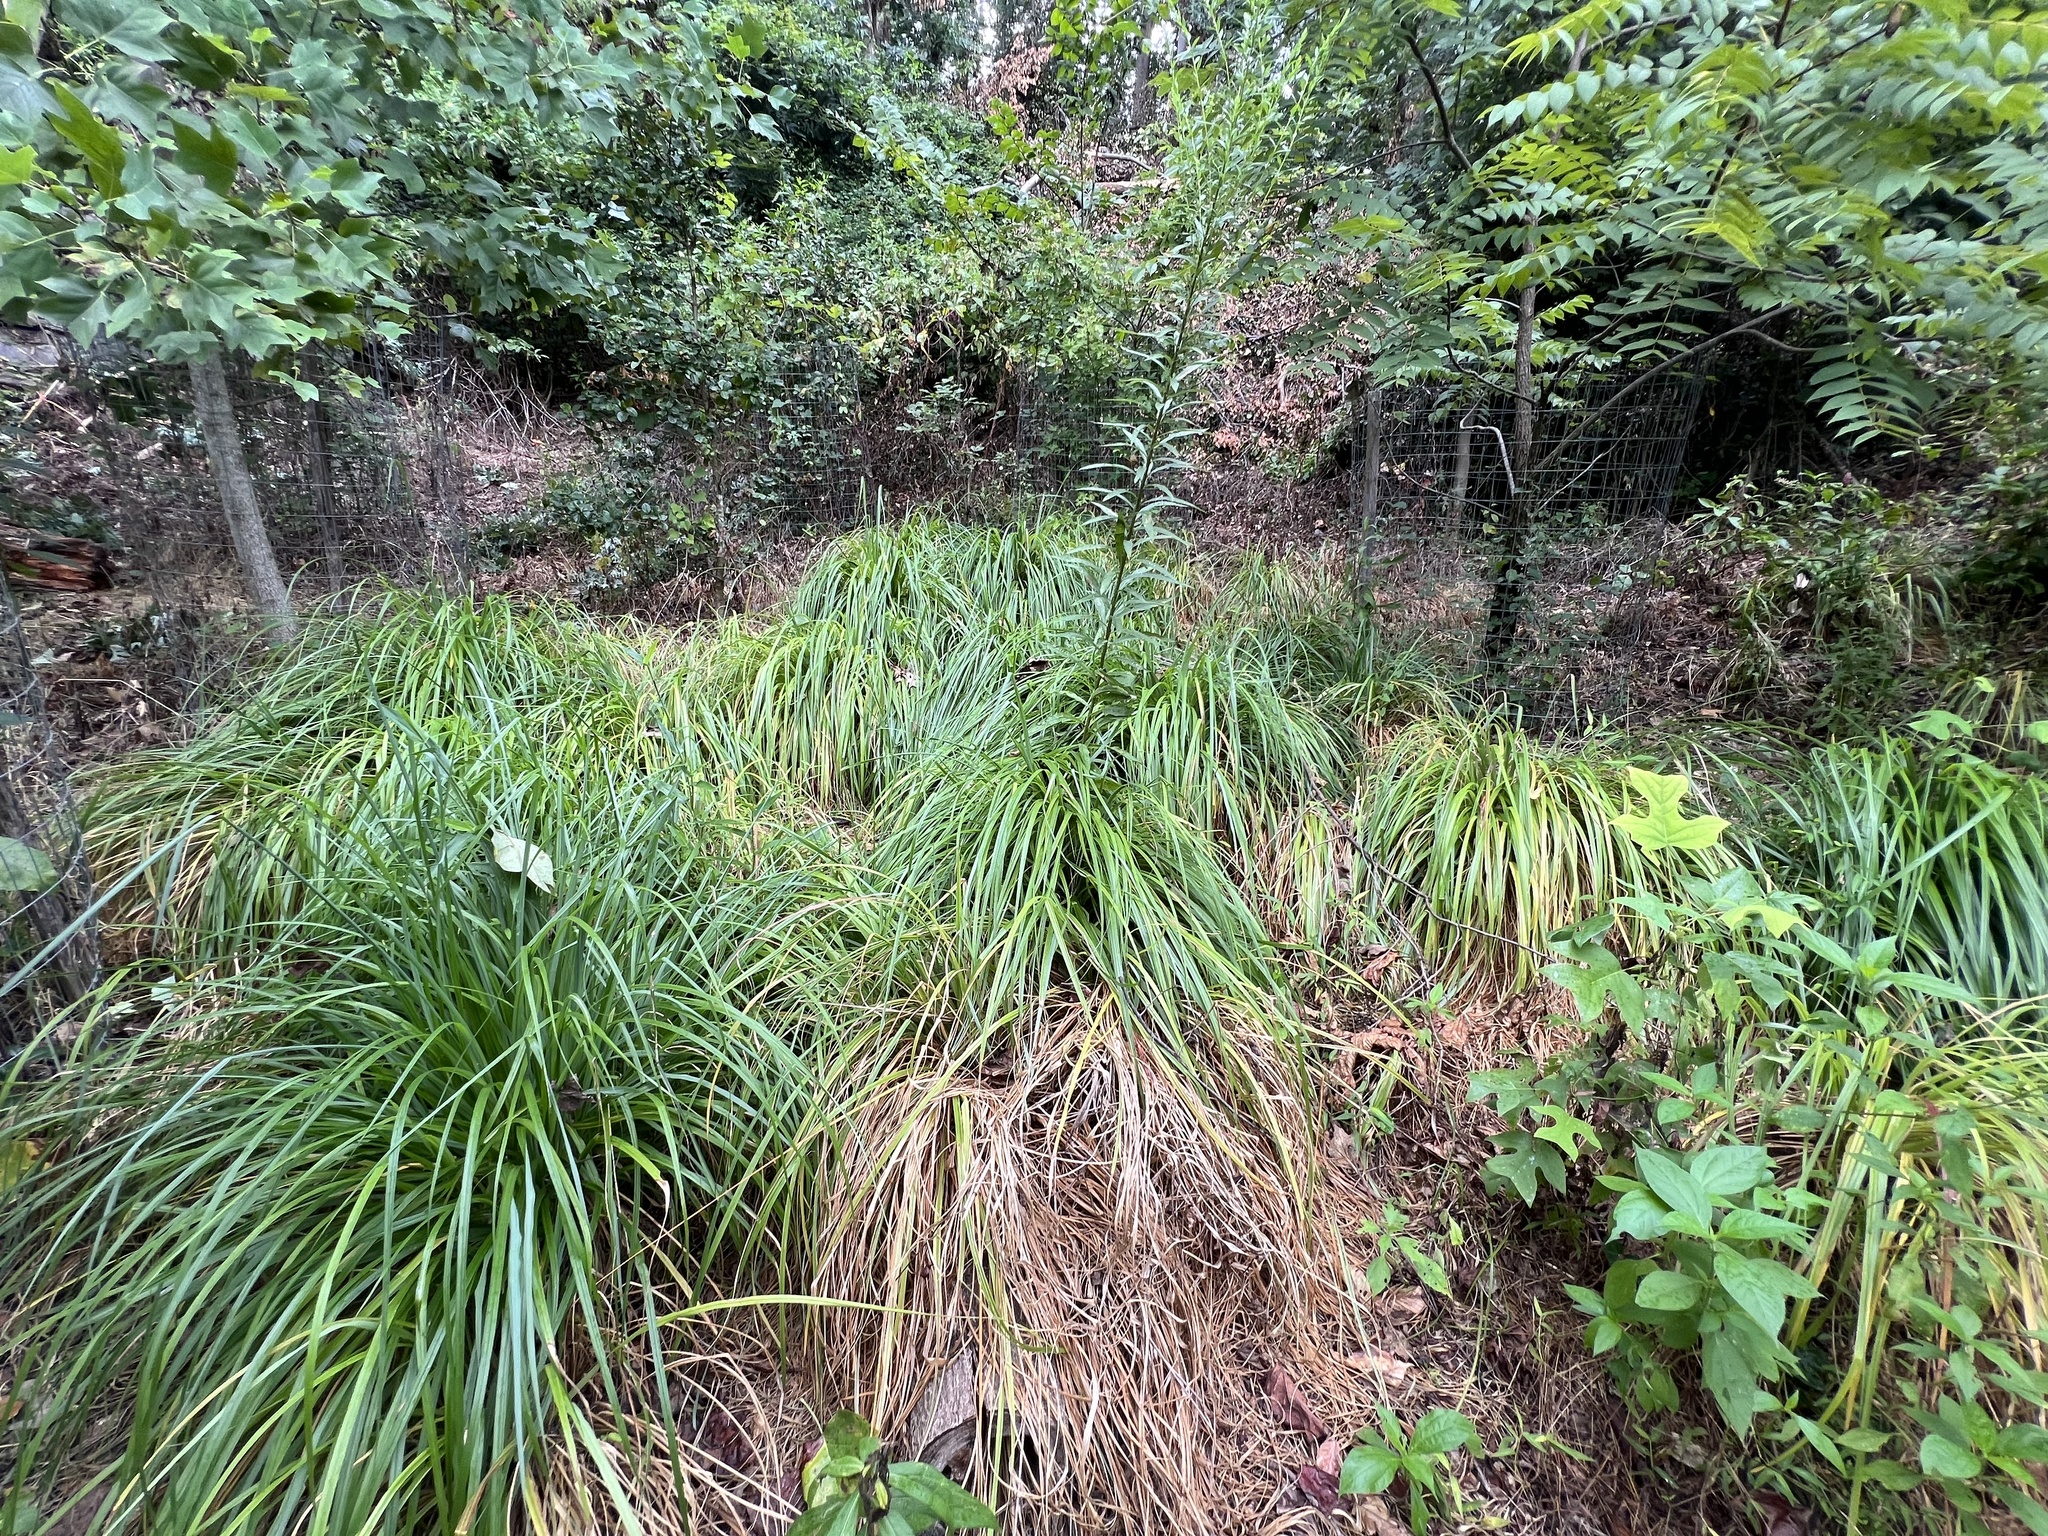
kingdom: Plantae
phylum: Tracheophyta
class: Liliopsida
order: Poales
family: Poaceae
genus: Cenchrus
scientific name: Cenchrus alopecuroides
